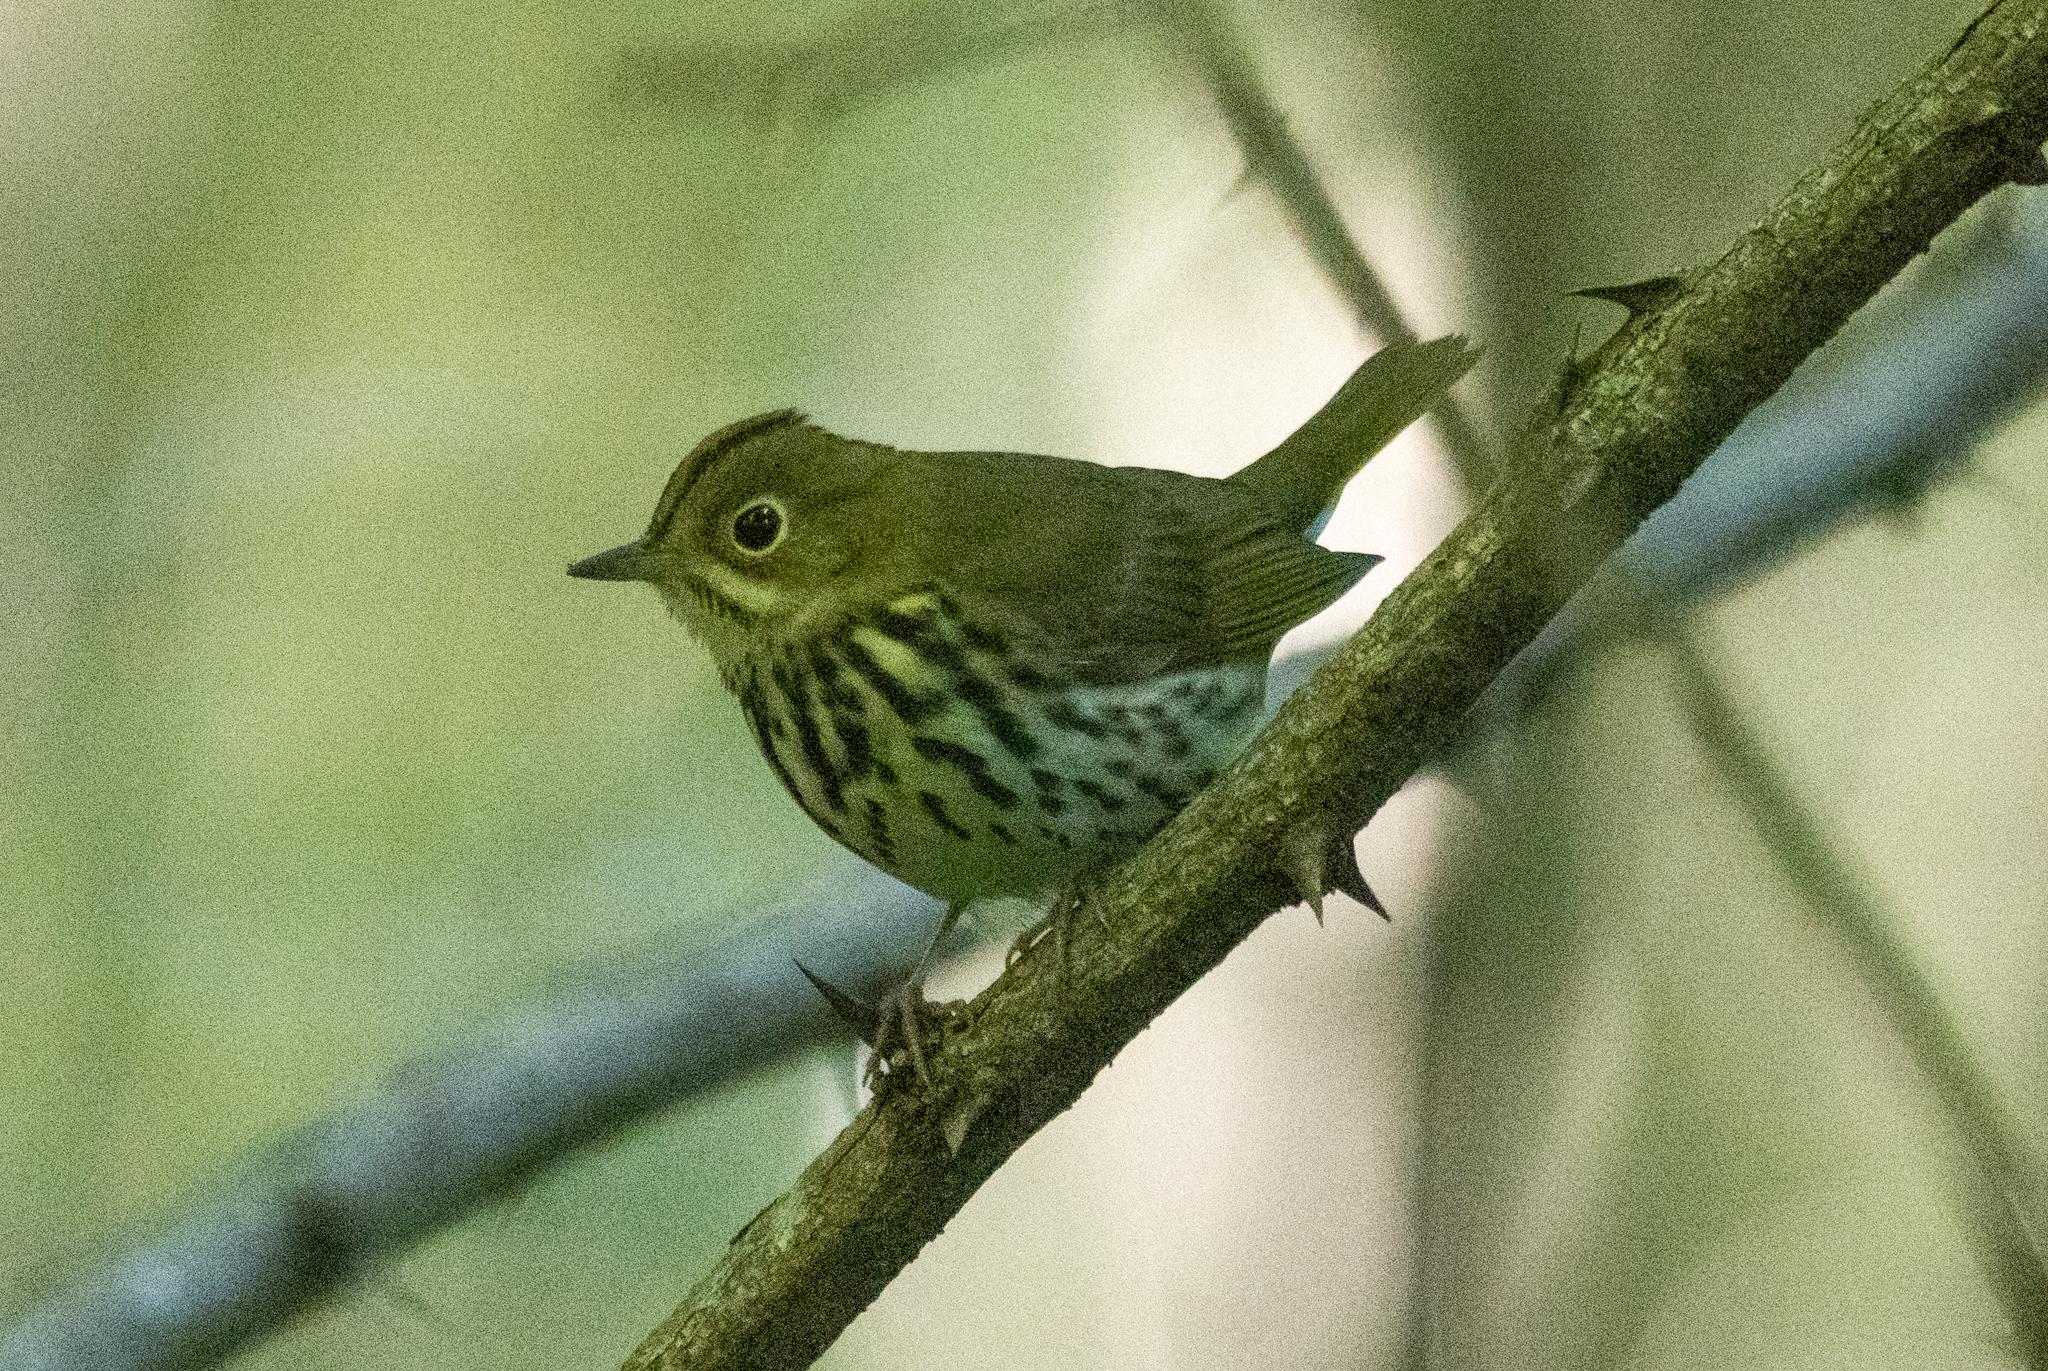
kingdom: Animalia
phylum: Chordata
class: Aves
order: Passeriformes
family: Parulidae
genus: Seiurus
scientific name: Seiurus aurocapilla
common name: Ovenbird
